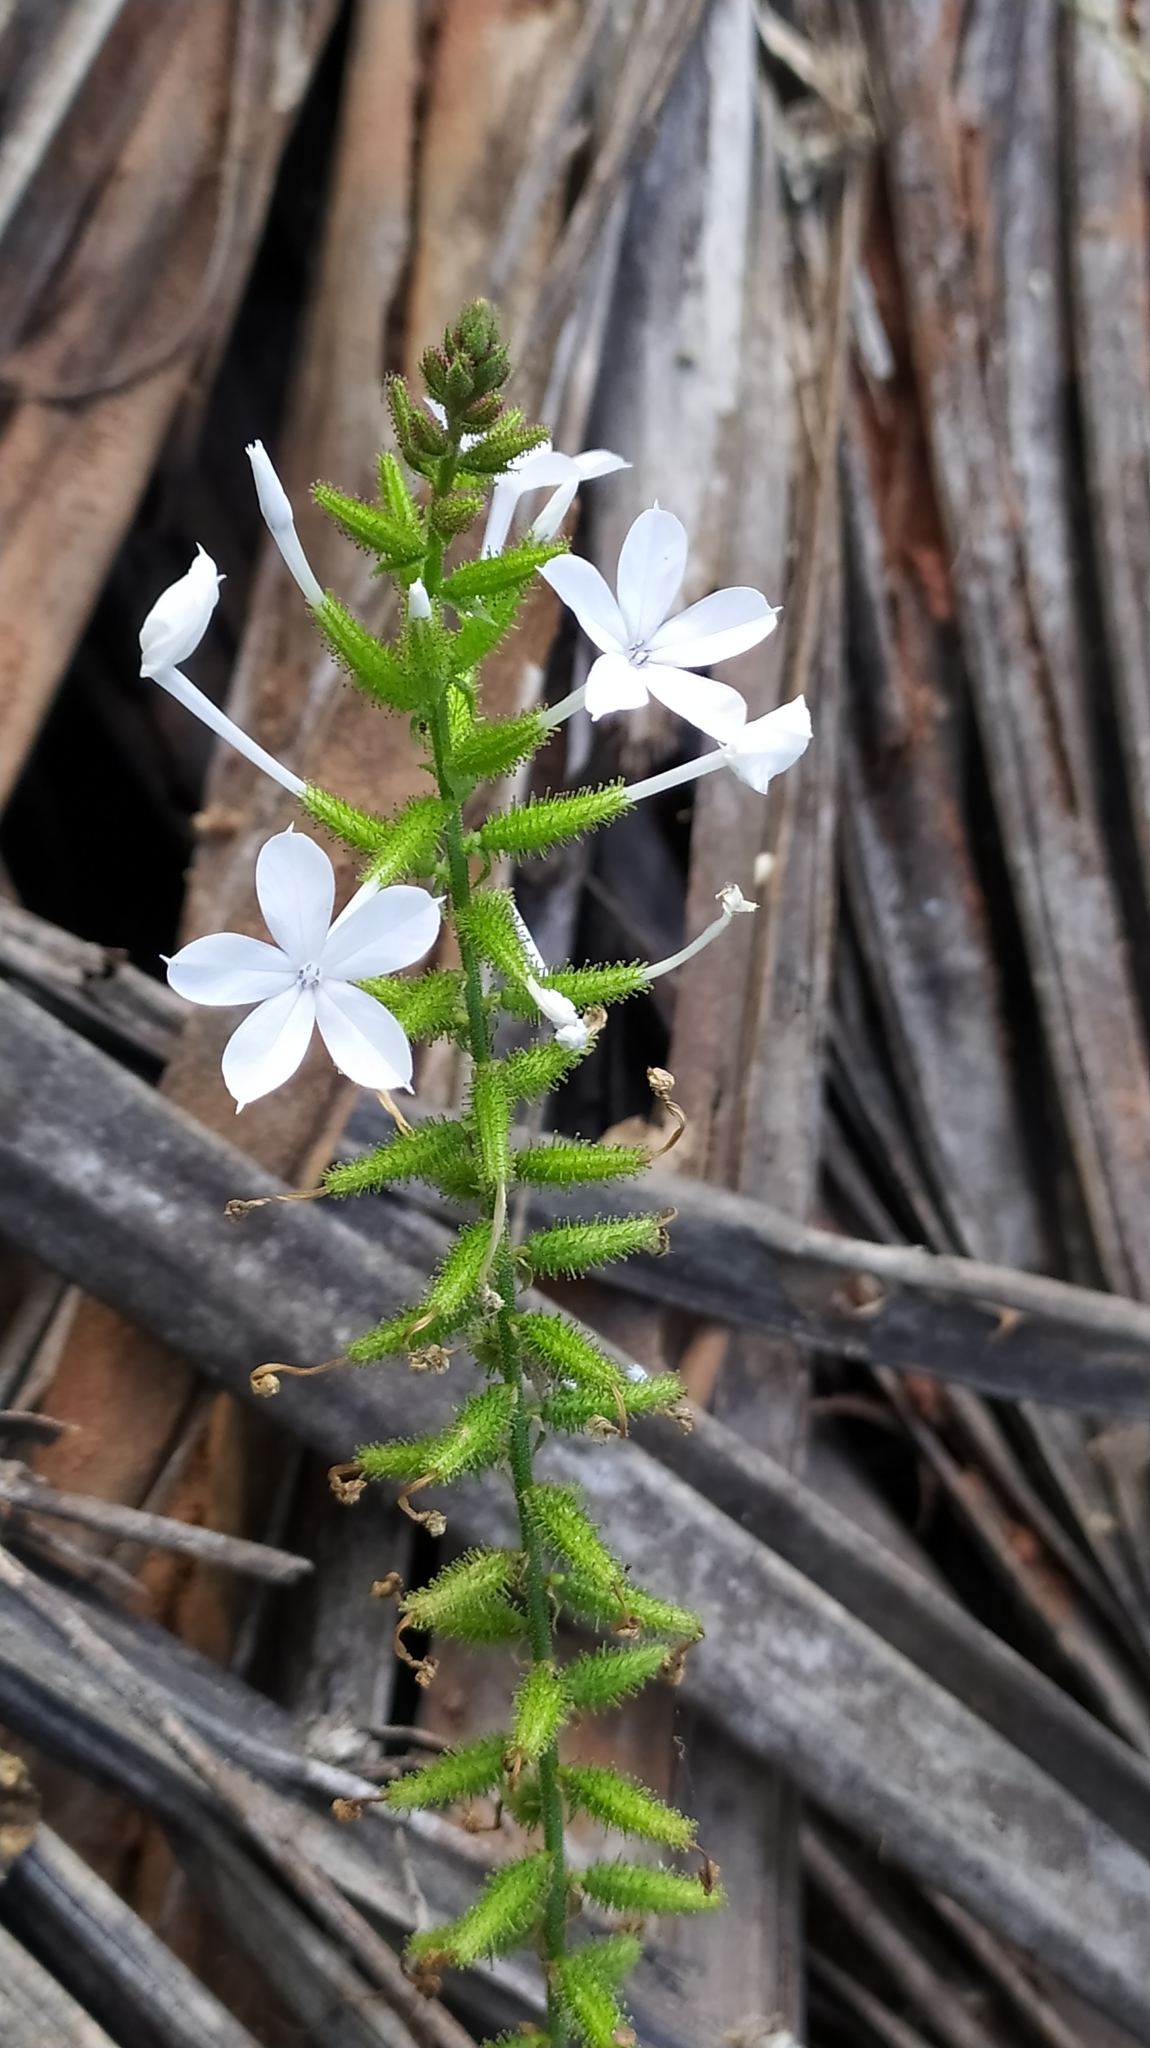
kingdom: Plantae
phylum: Tracheophyta
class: Magnoliopsida
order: Caryophyllales
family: Plumbaginaceae
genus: Plumbago
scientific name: Plumbago zeylanica
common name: Doctorbush
